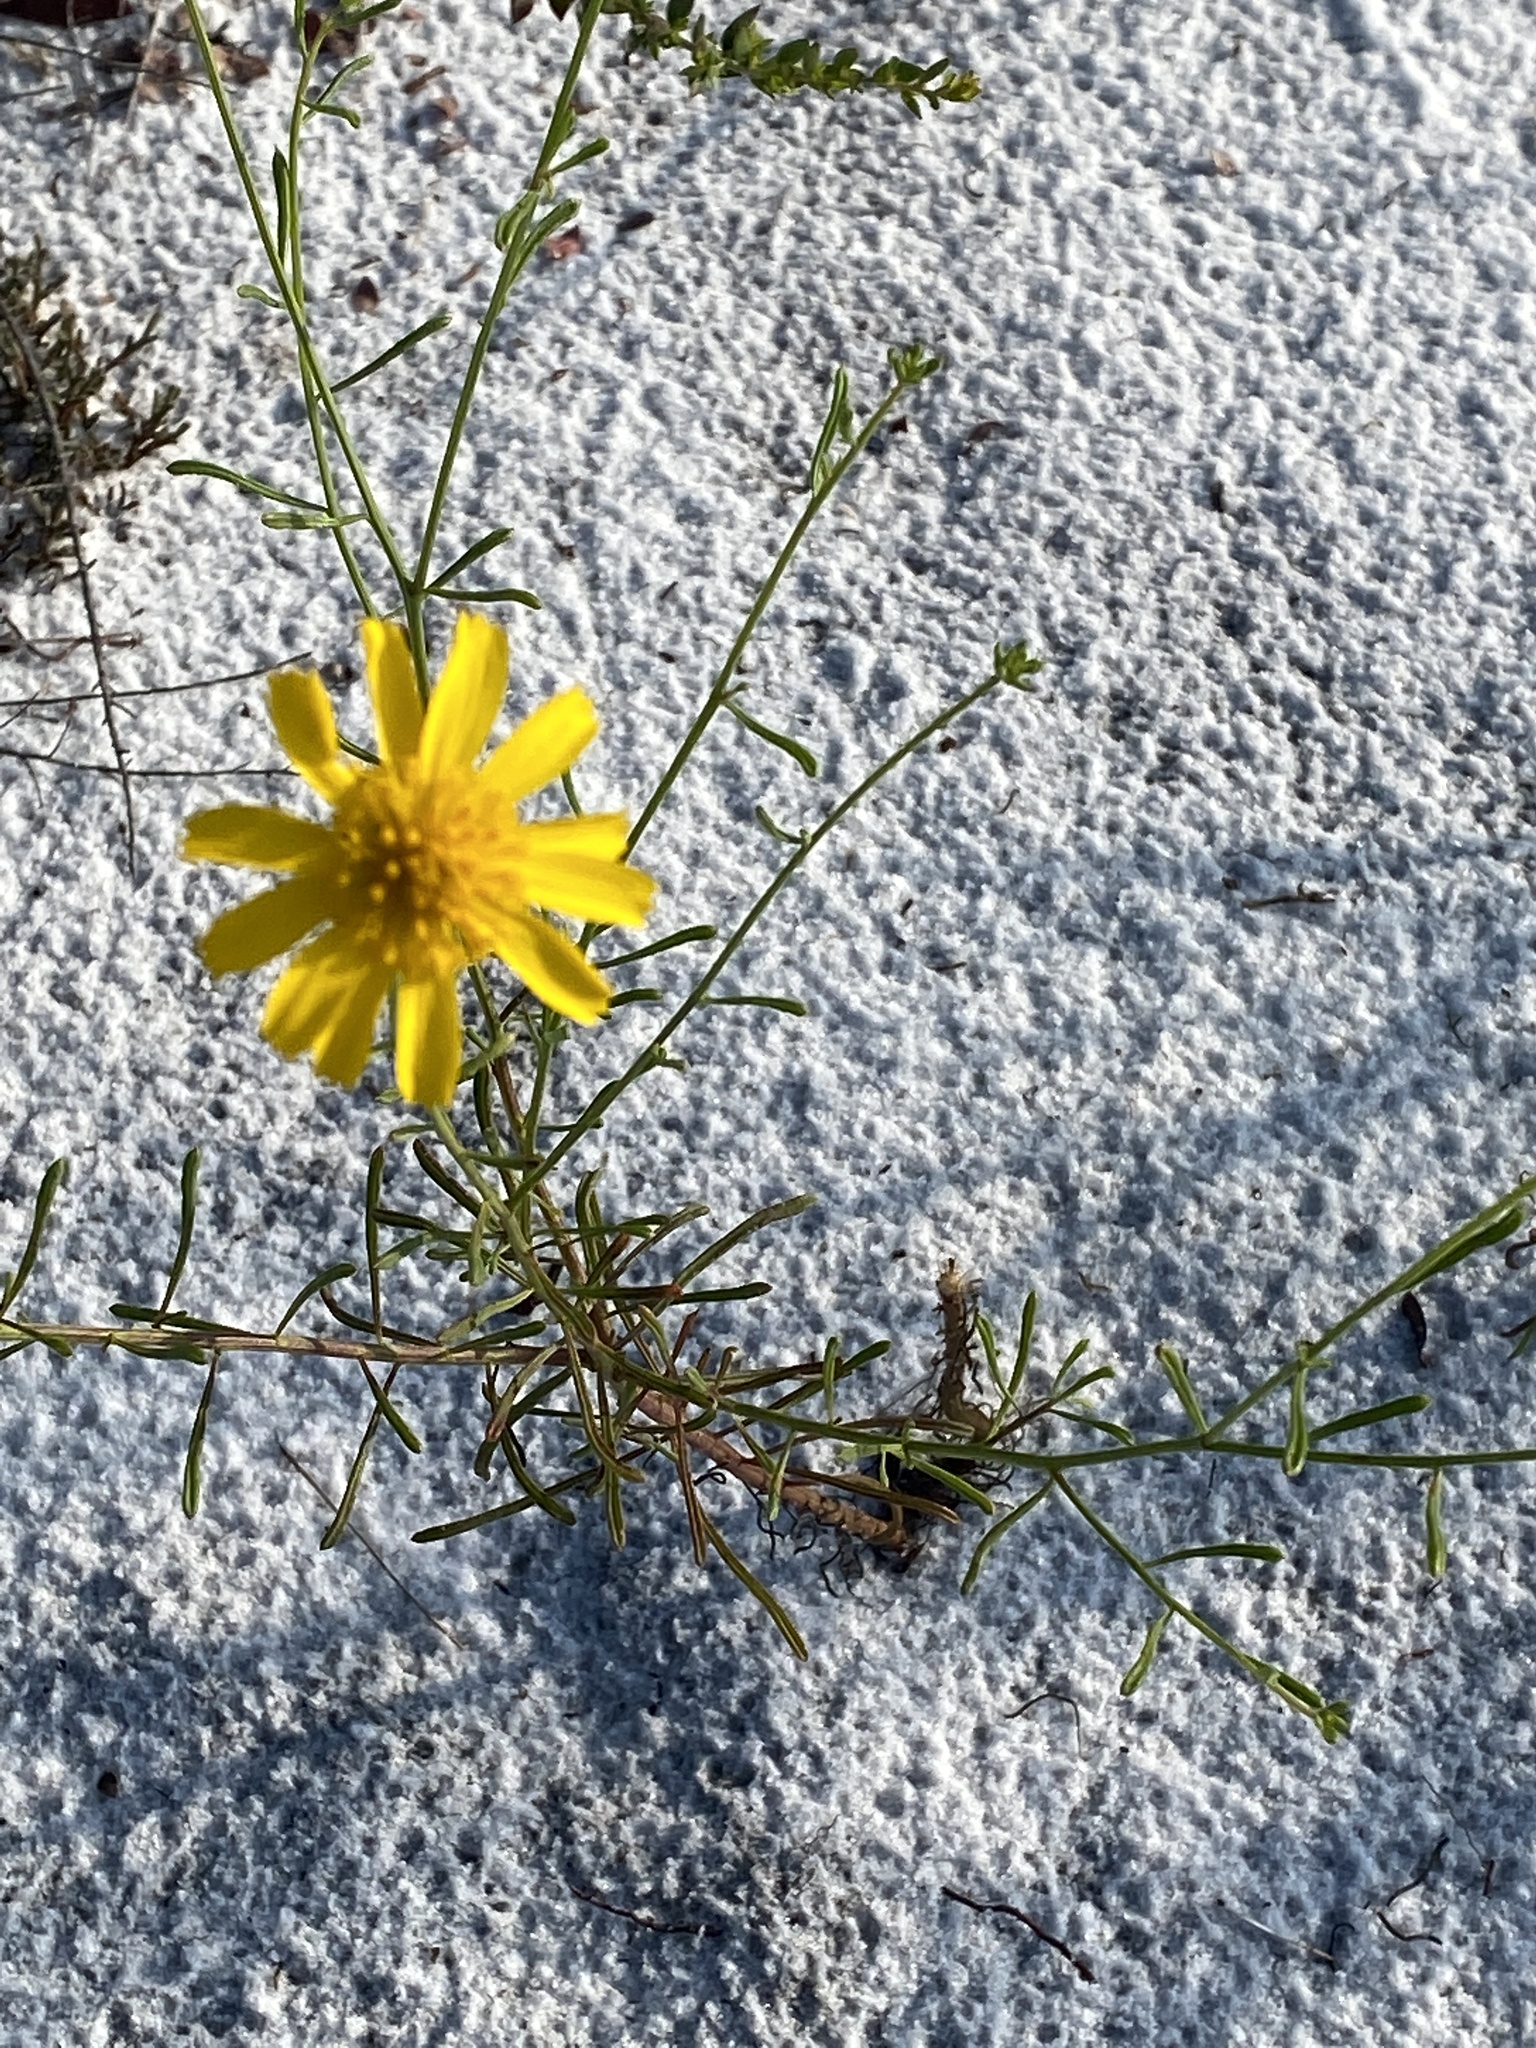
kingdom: Plantae
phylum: Tracheophyta
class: Magnoliopsida
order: Asterales
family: Asteraceae
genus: Balduina
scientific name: Balduina angustifolia
